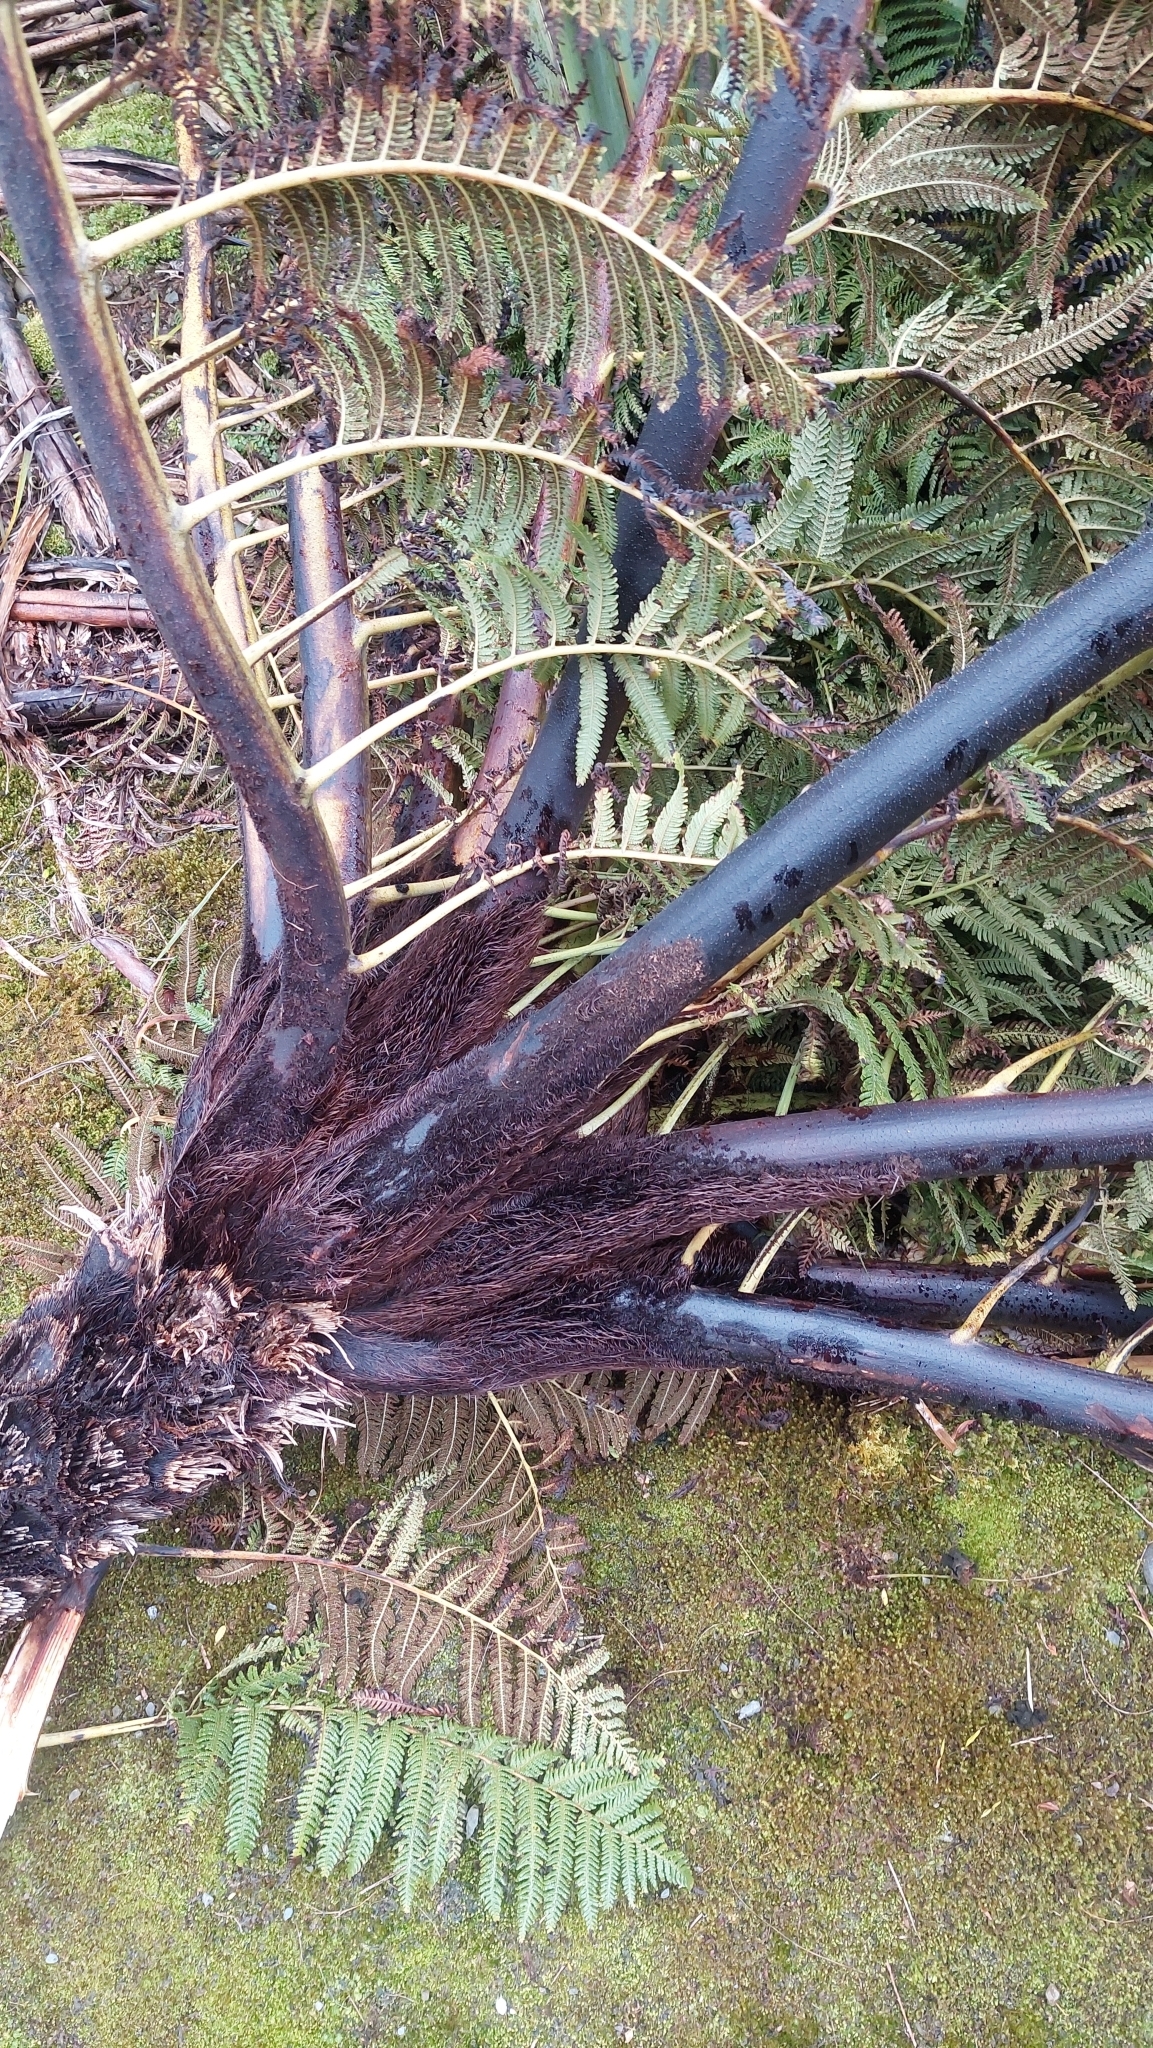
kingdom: Plantae
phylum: Tracheophyta
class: Polypodiopsida
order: Cyatheales
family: Cyatheaceae
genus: Sphaeropteris
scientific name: Sphaeropteris medullaris
